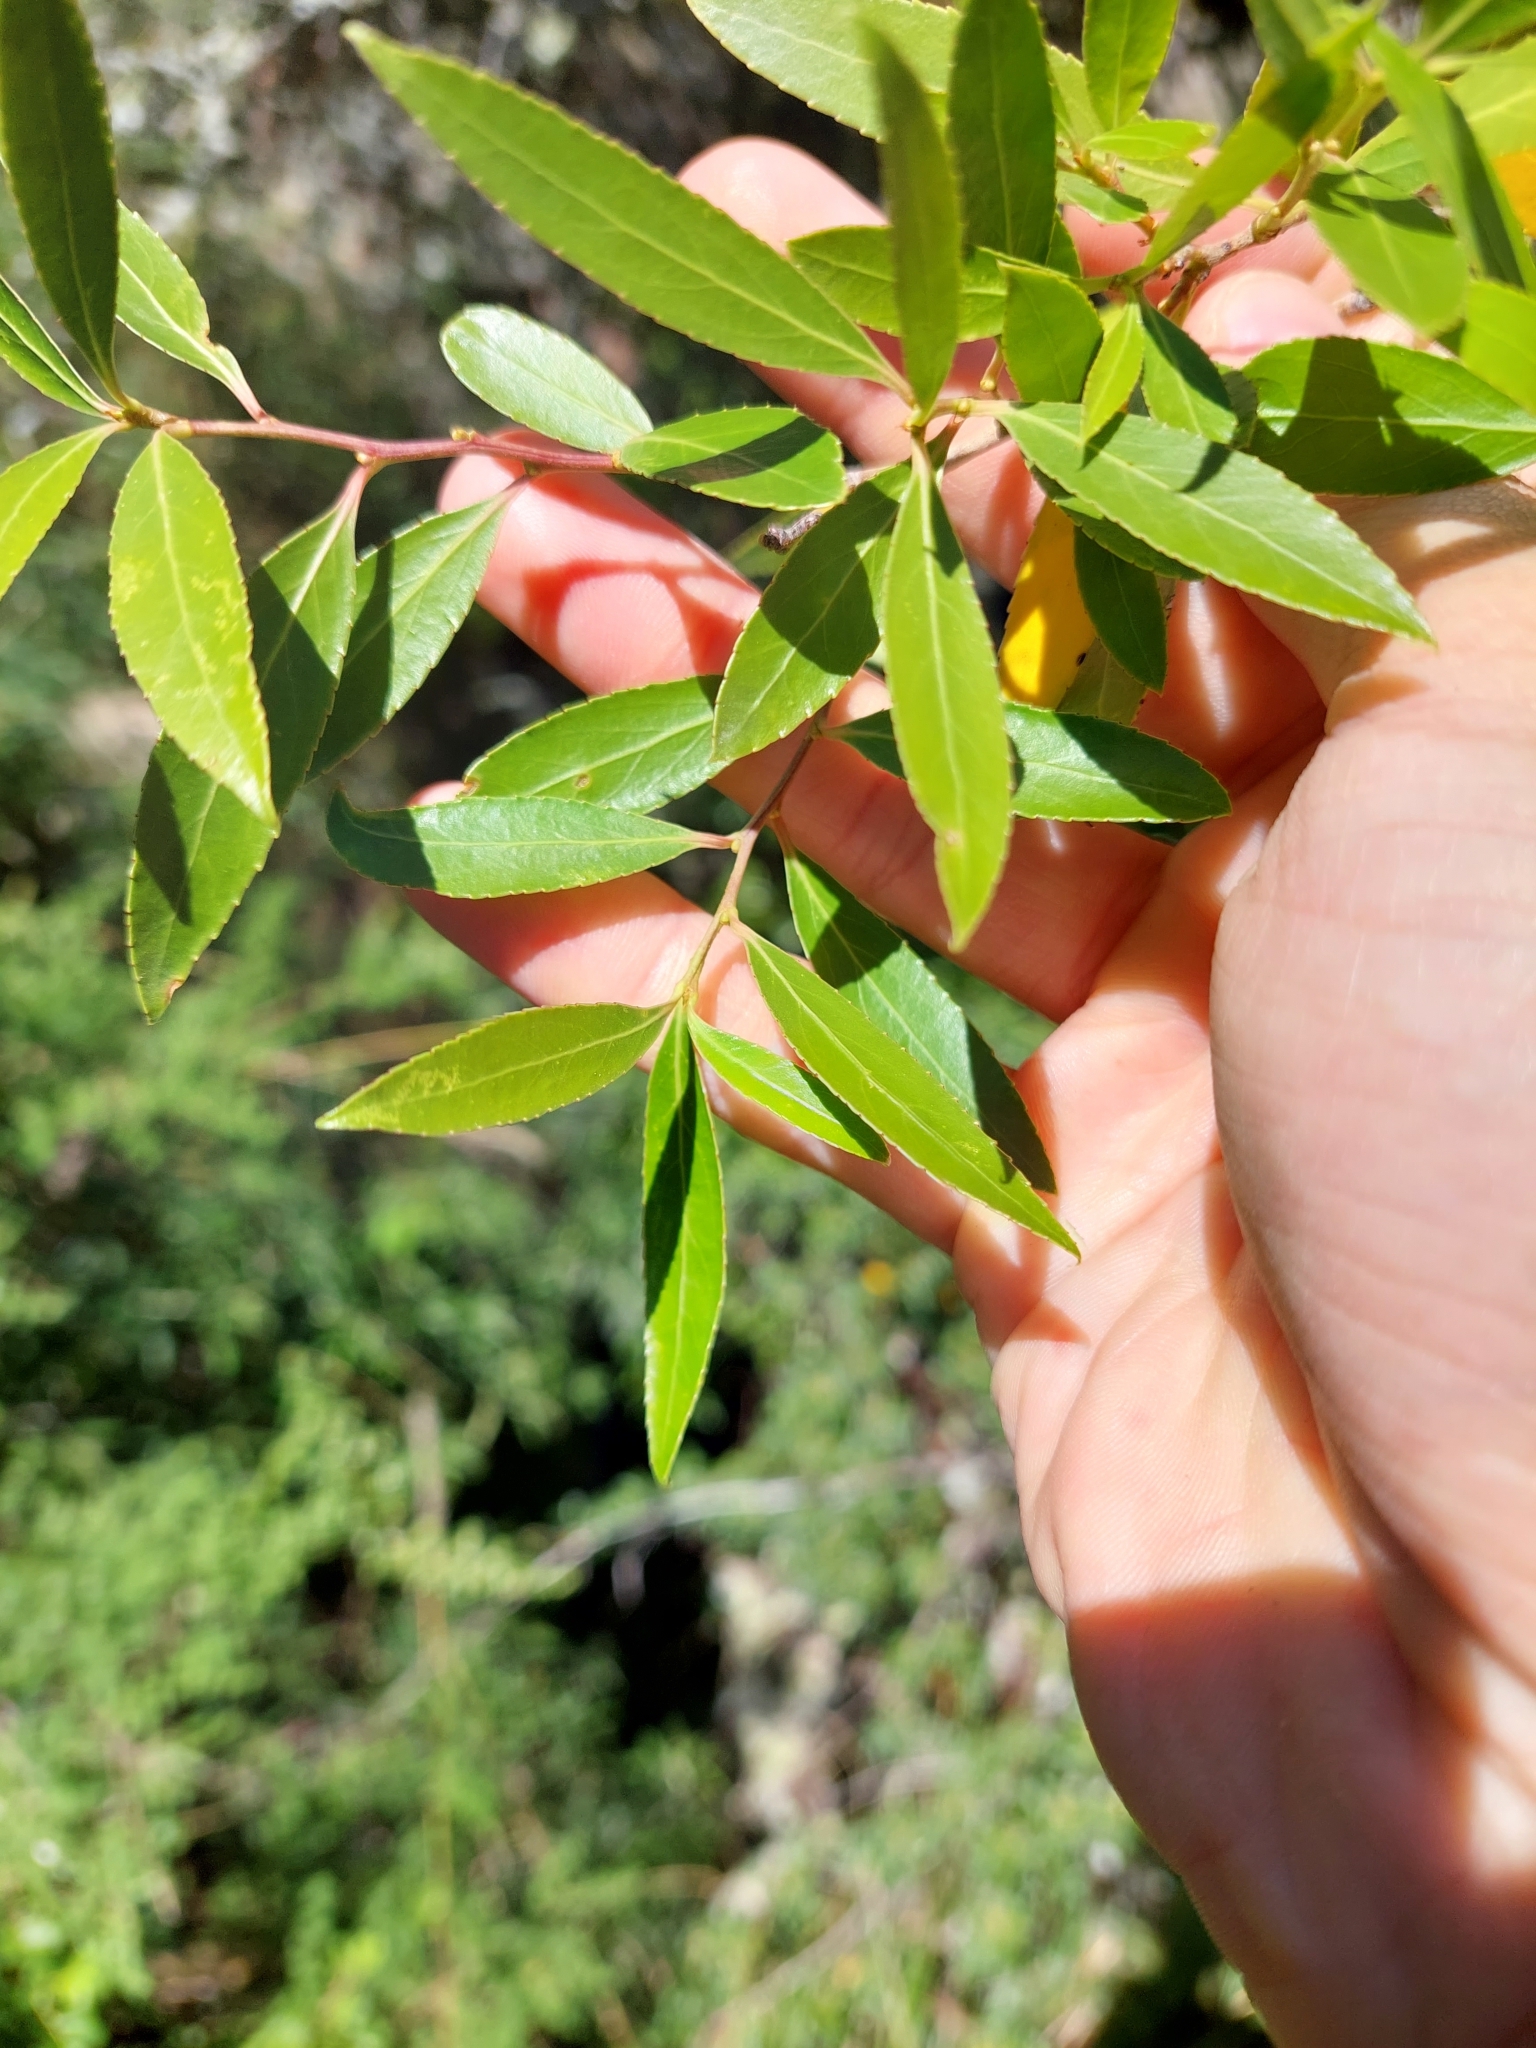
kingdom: Plantae
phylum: Tracheophyta
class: Magnoliopsida
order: Celastrales
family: Celastraceae
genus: Maytenus
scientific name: Maytenus boaria
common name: Mayten
